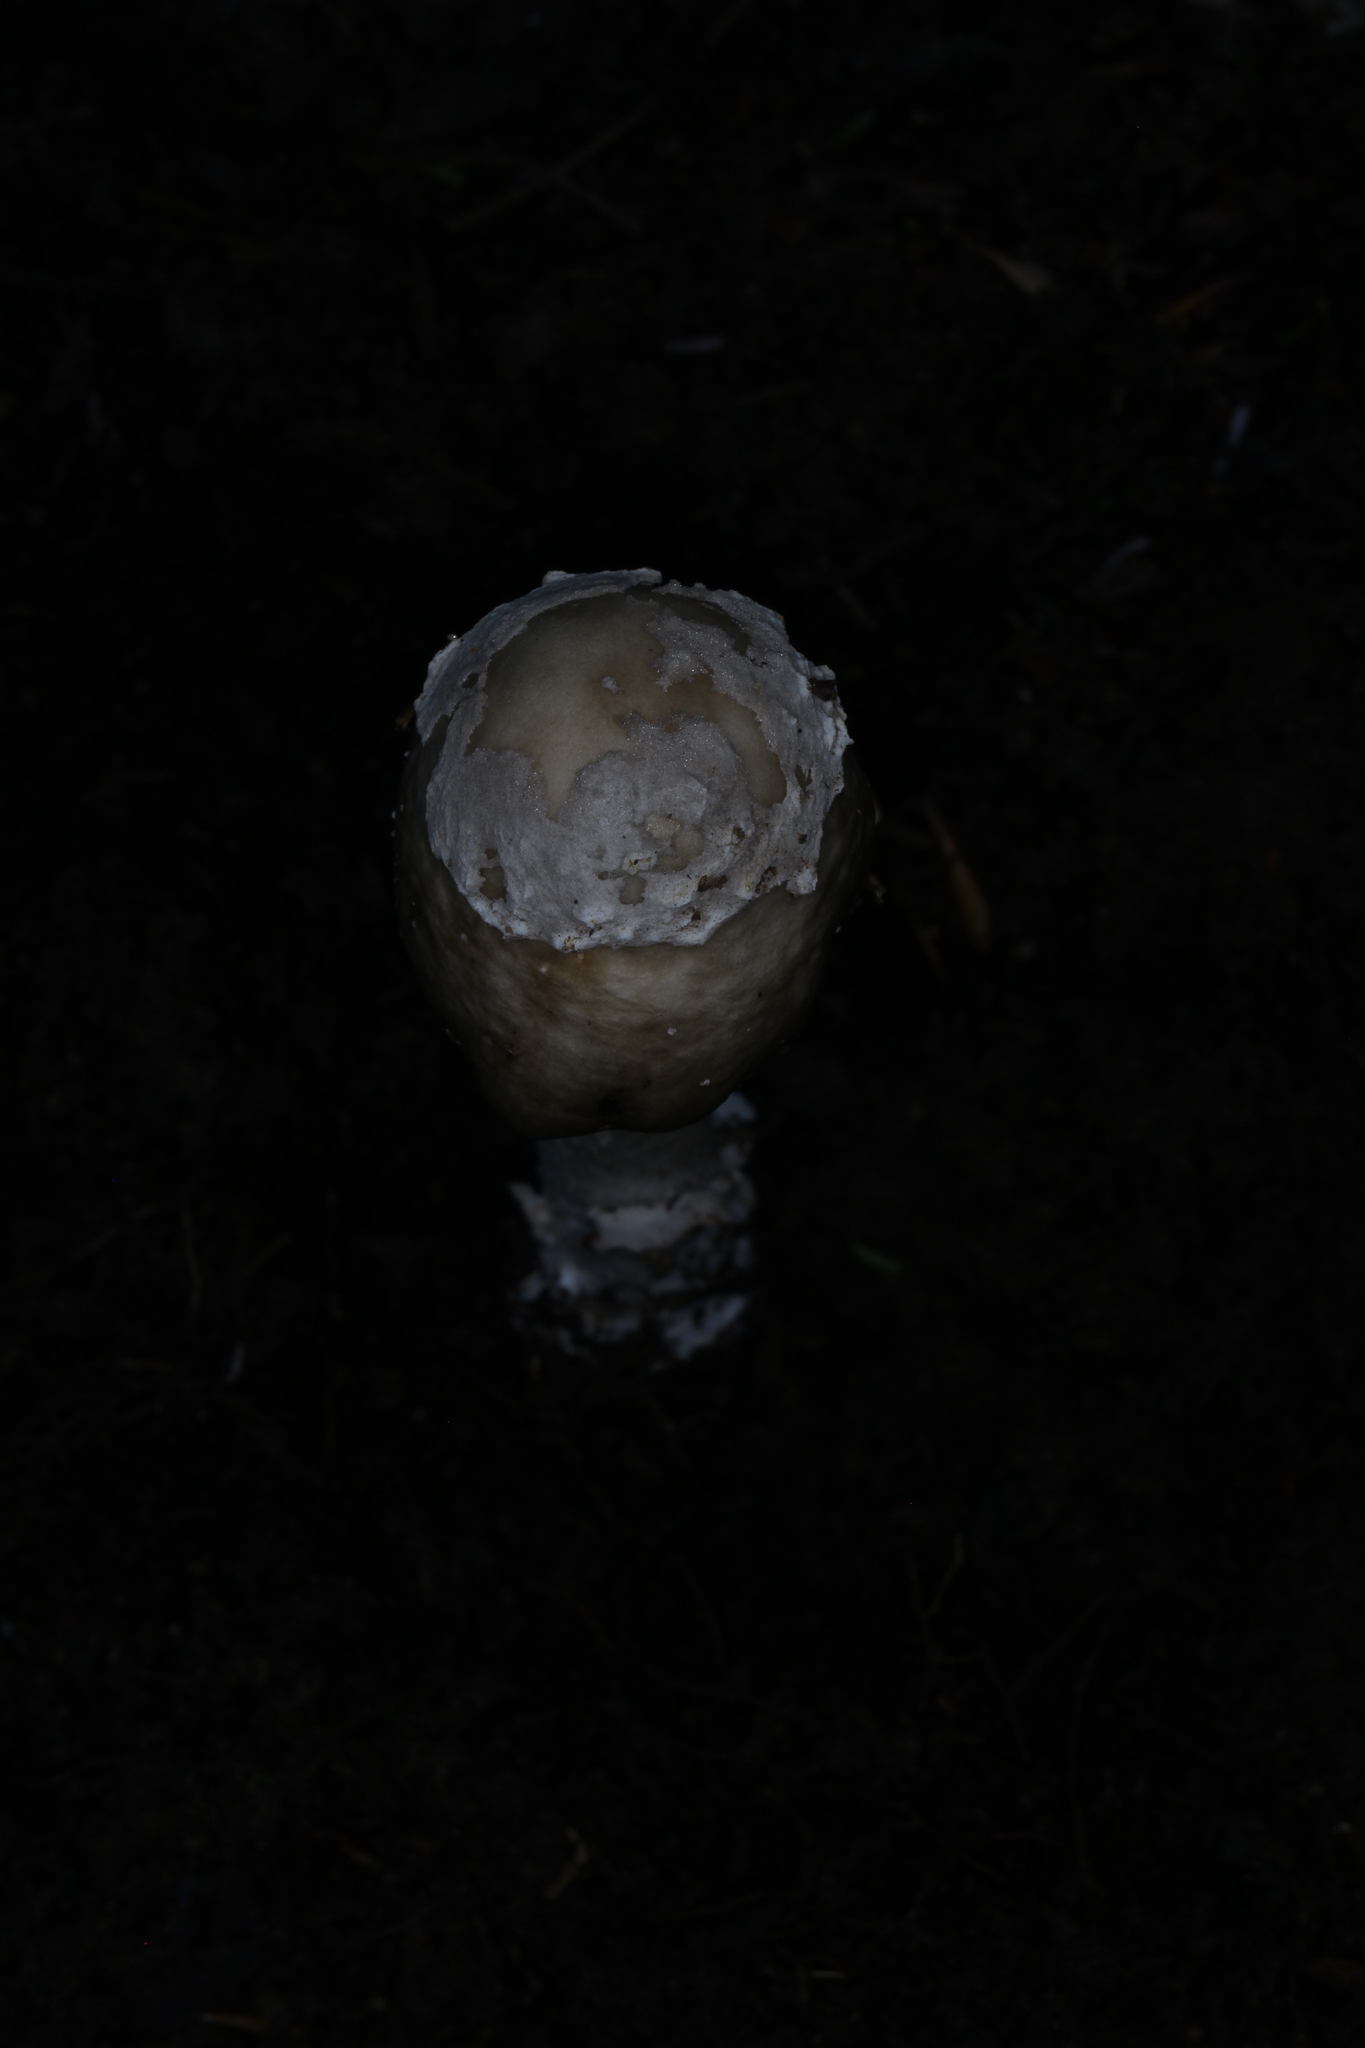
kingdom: Fungi
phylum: Basidiomycota
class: Agaricomycetes
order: Agaricales
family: Amanitaceae
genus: Amanita
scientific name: Amanita submaculata
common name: Ball gown amanita
